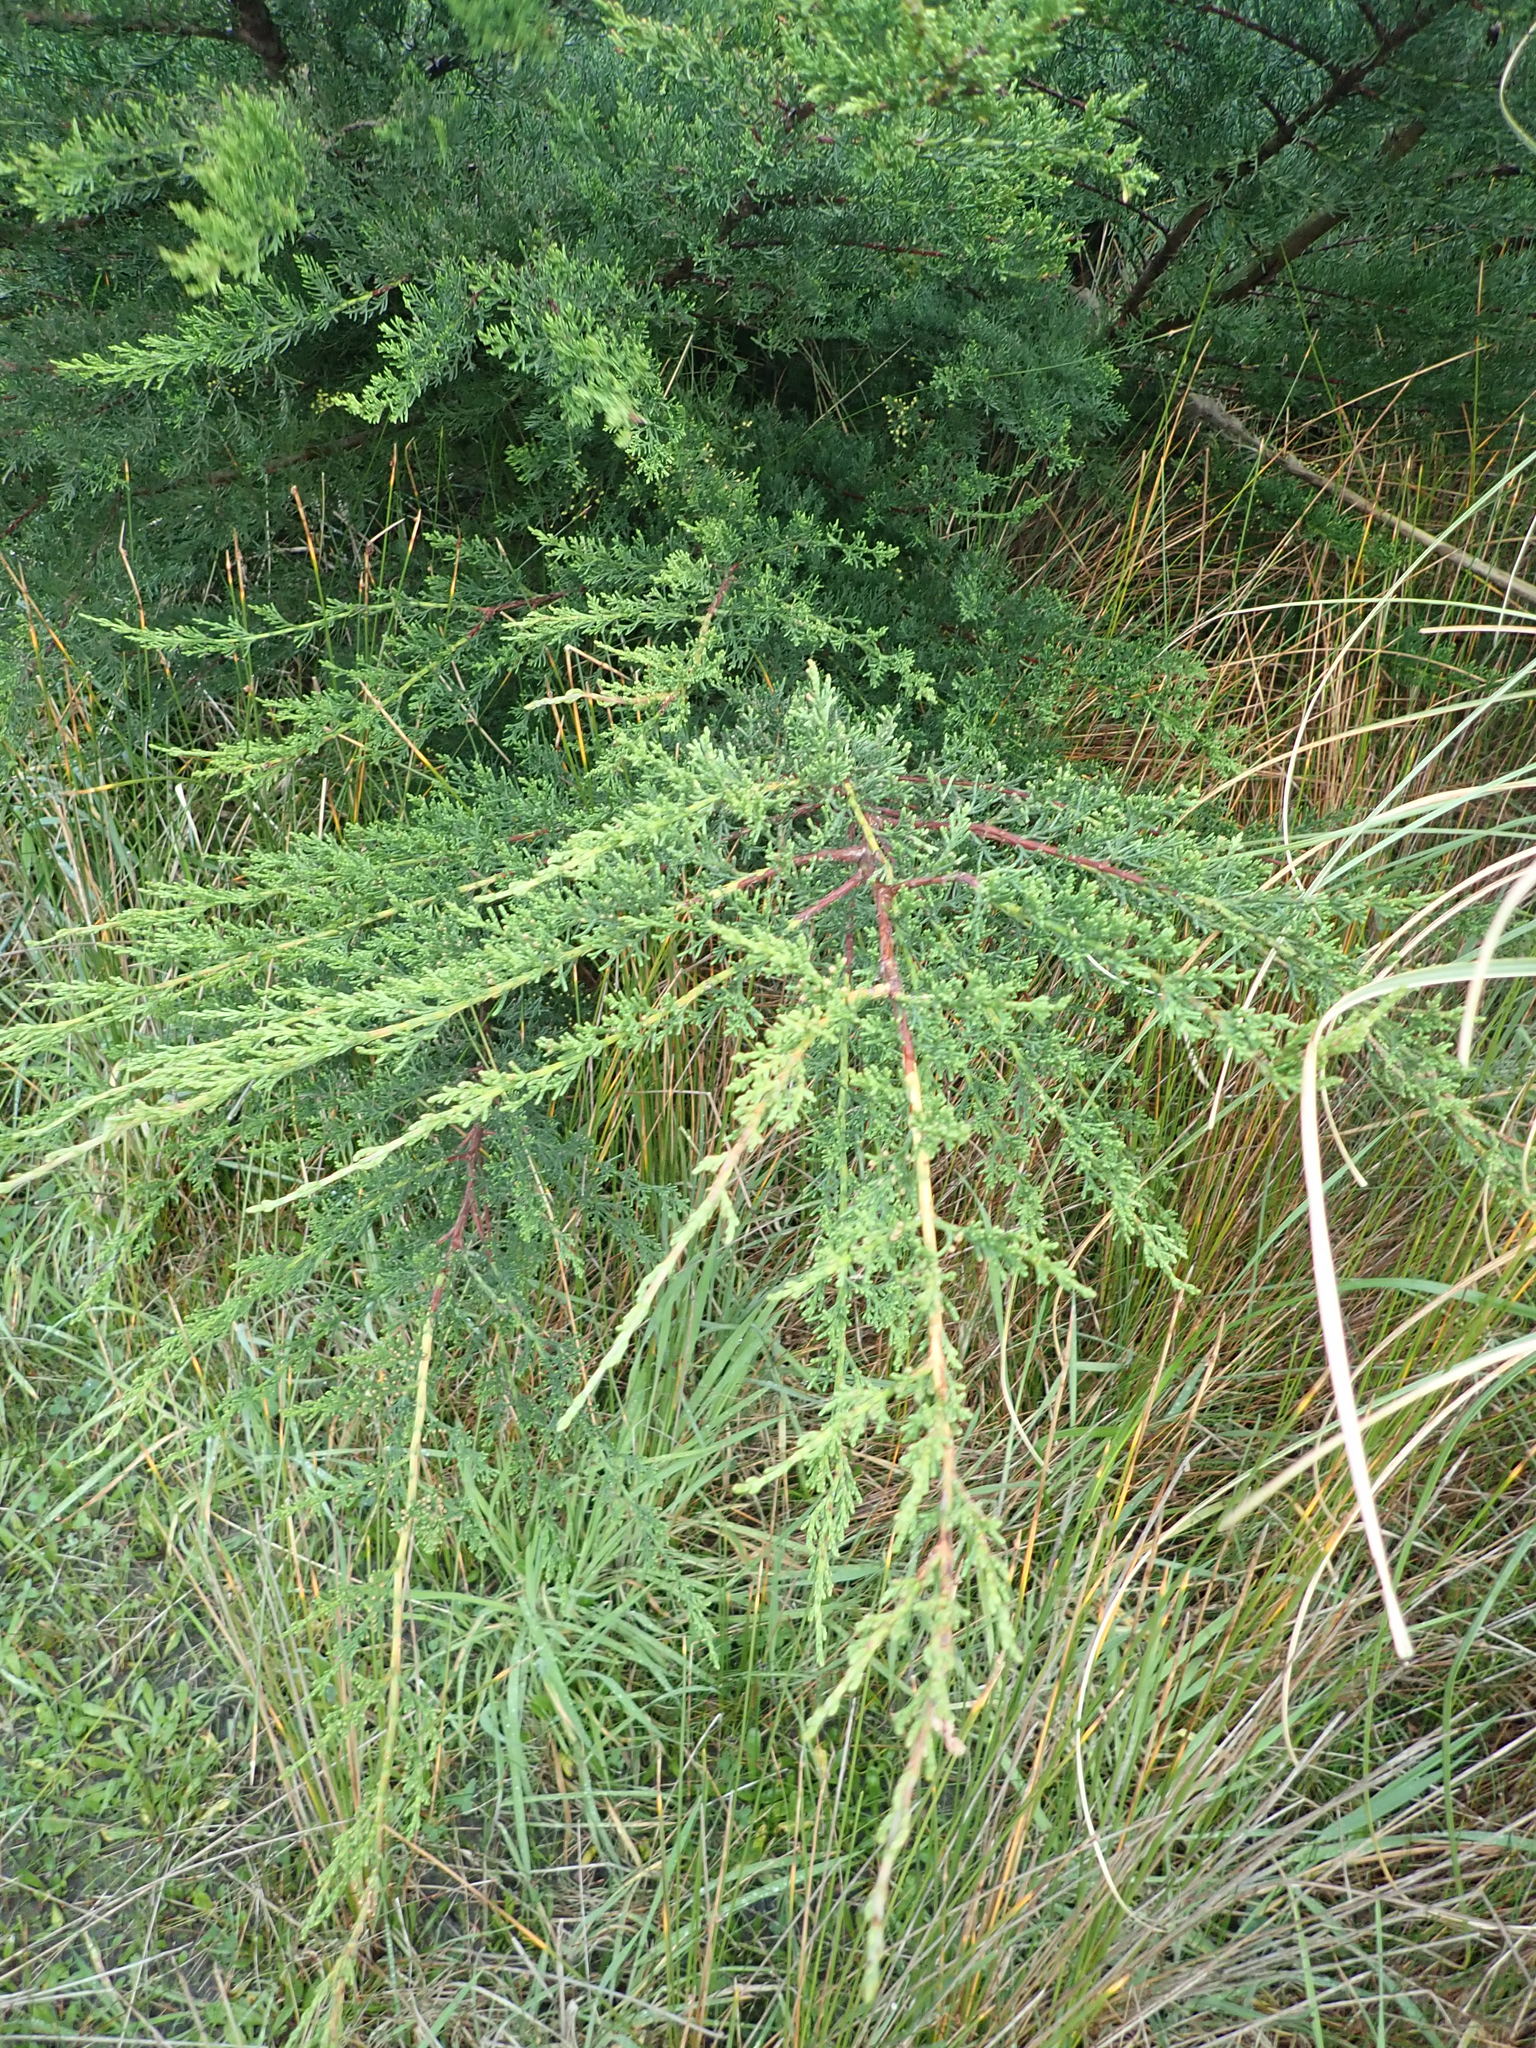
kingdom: Plantae
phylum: Tracheophyta
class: Pinopsida
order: Pinales
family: Cupressaceae
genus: Cupressus
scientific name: Cupressus macrocarpa
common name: Monterey cypress
